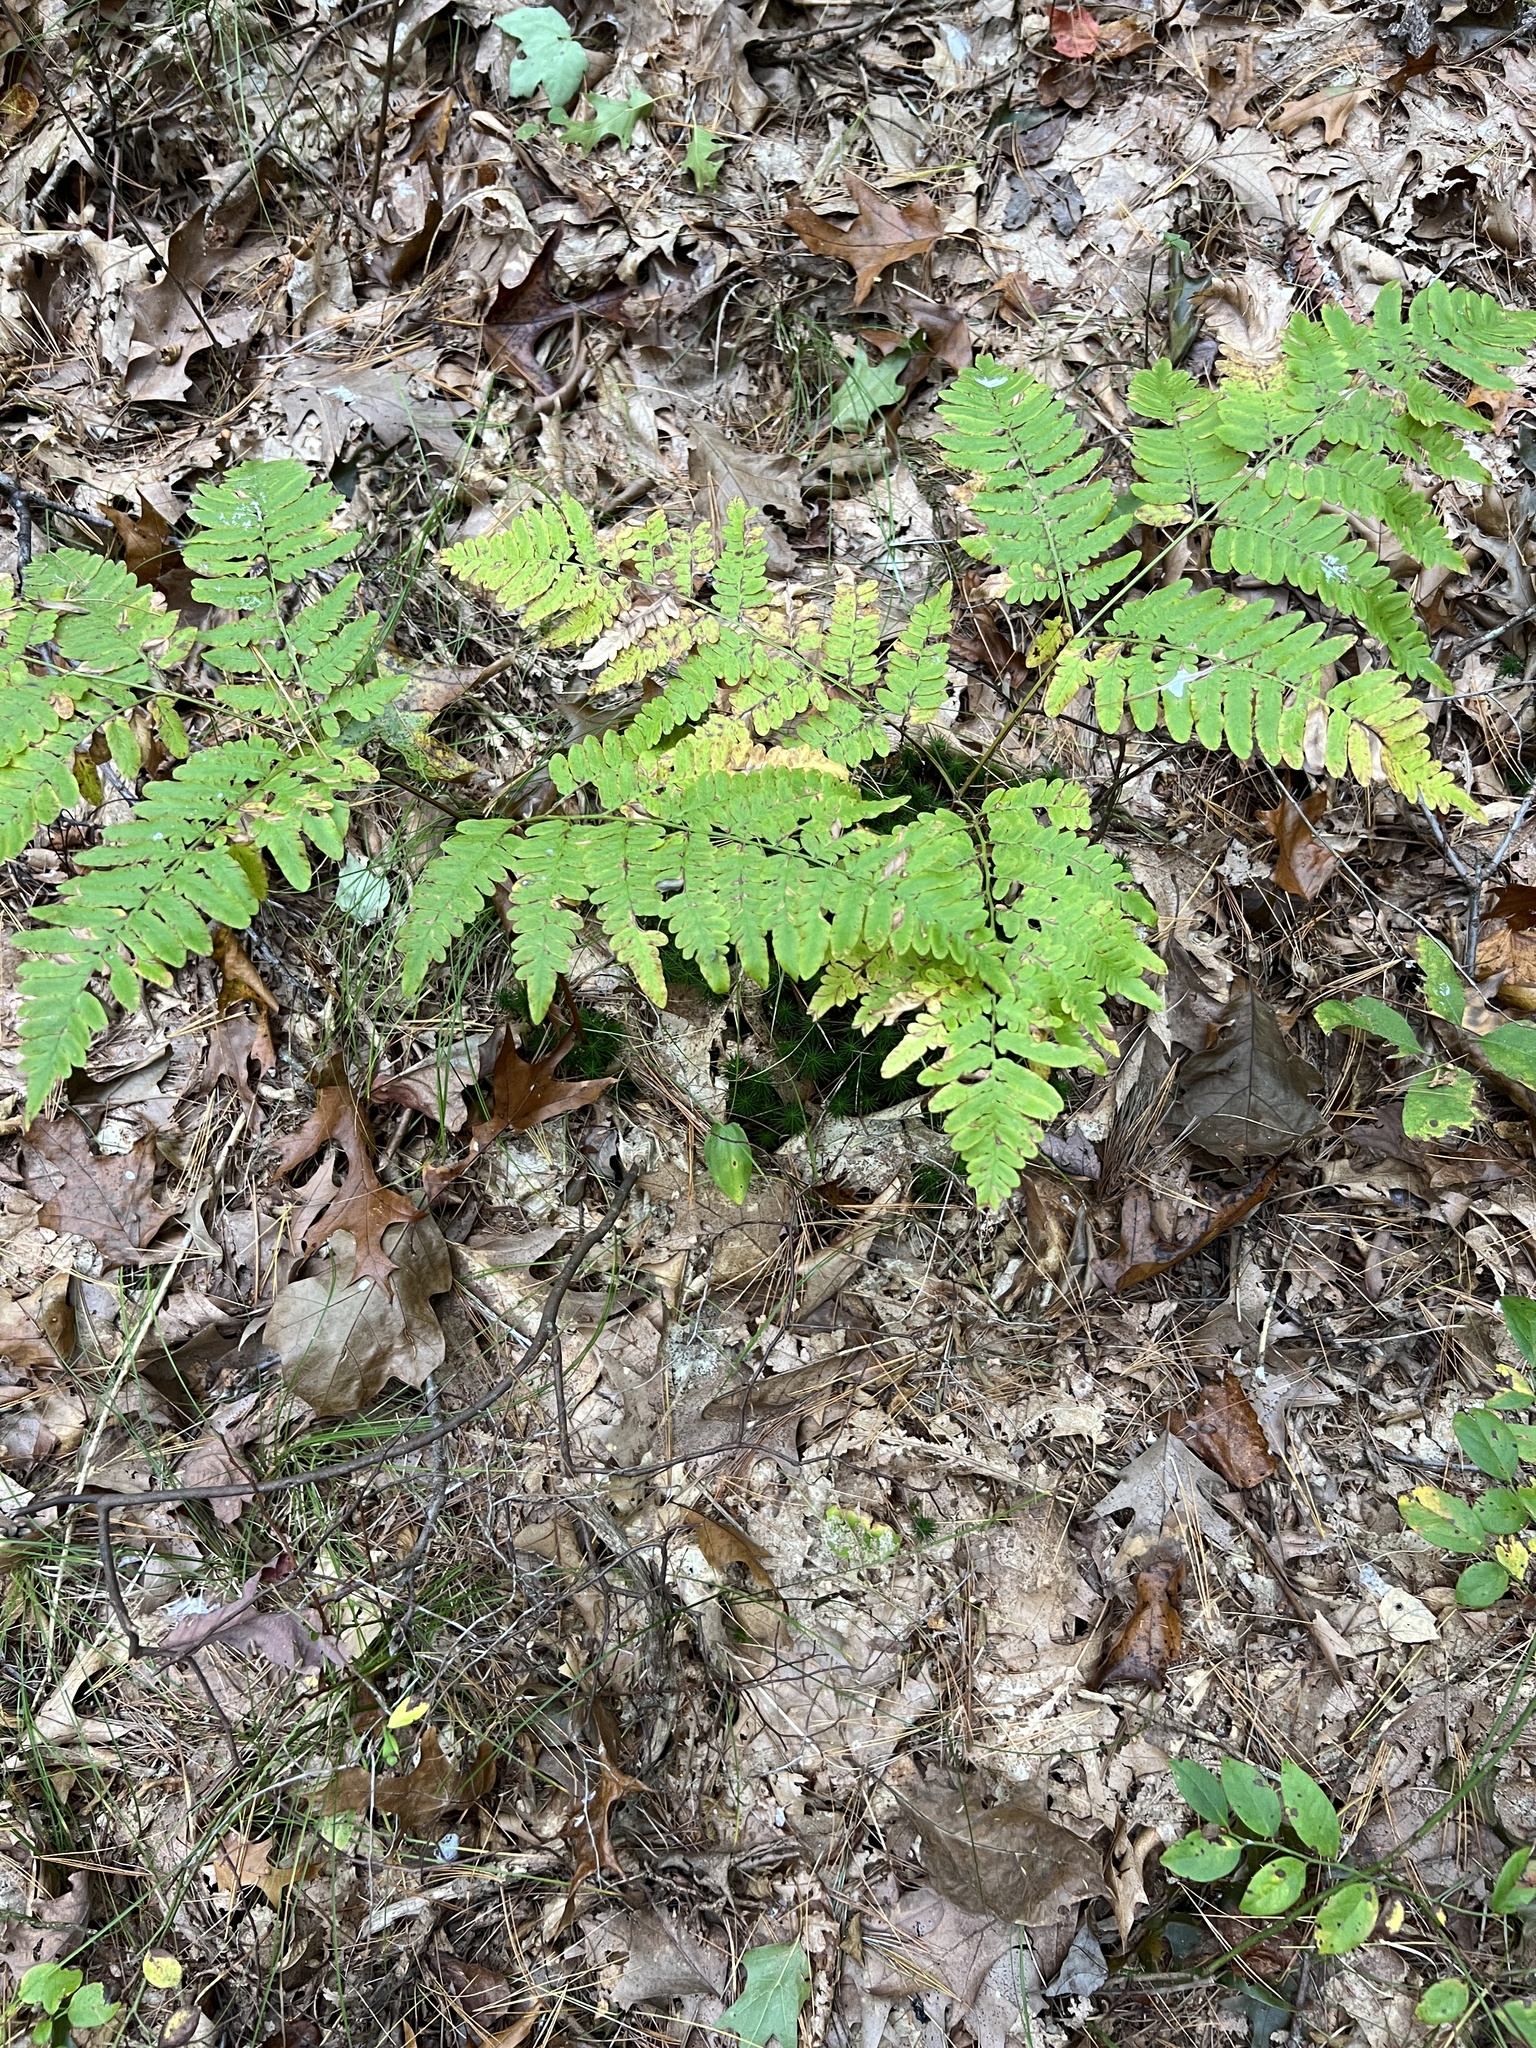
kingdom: Plantae
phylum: Tracheophyta
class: Polypodiopsida
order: Polypodiales
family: Dennstaedtiaceae
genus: Pteridium
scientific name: Pteridium aquilinum
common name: Bracken
